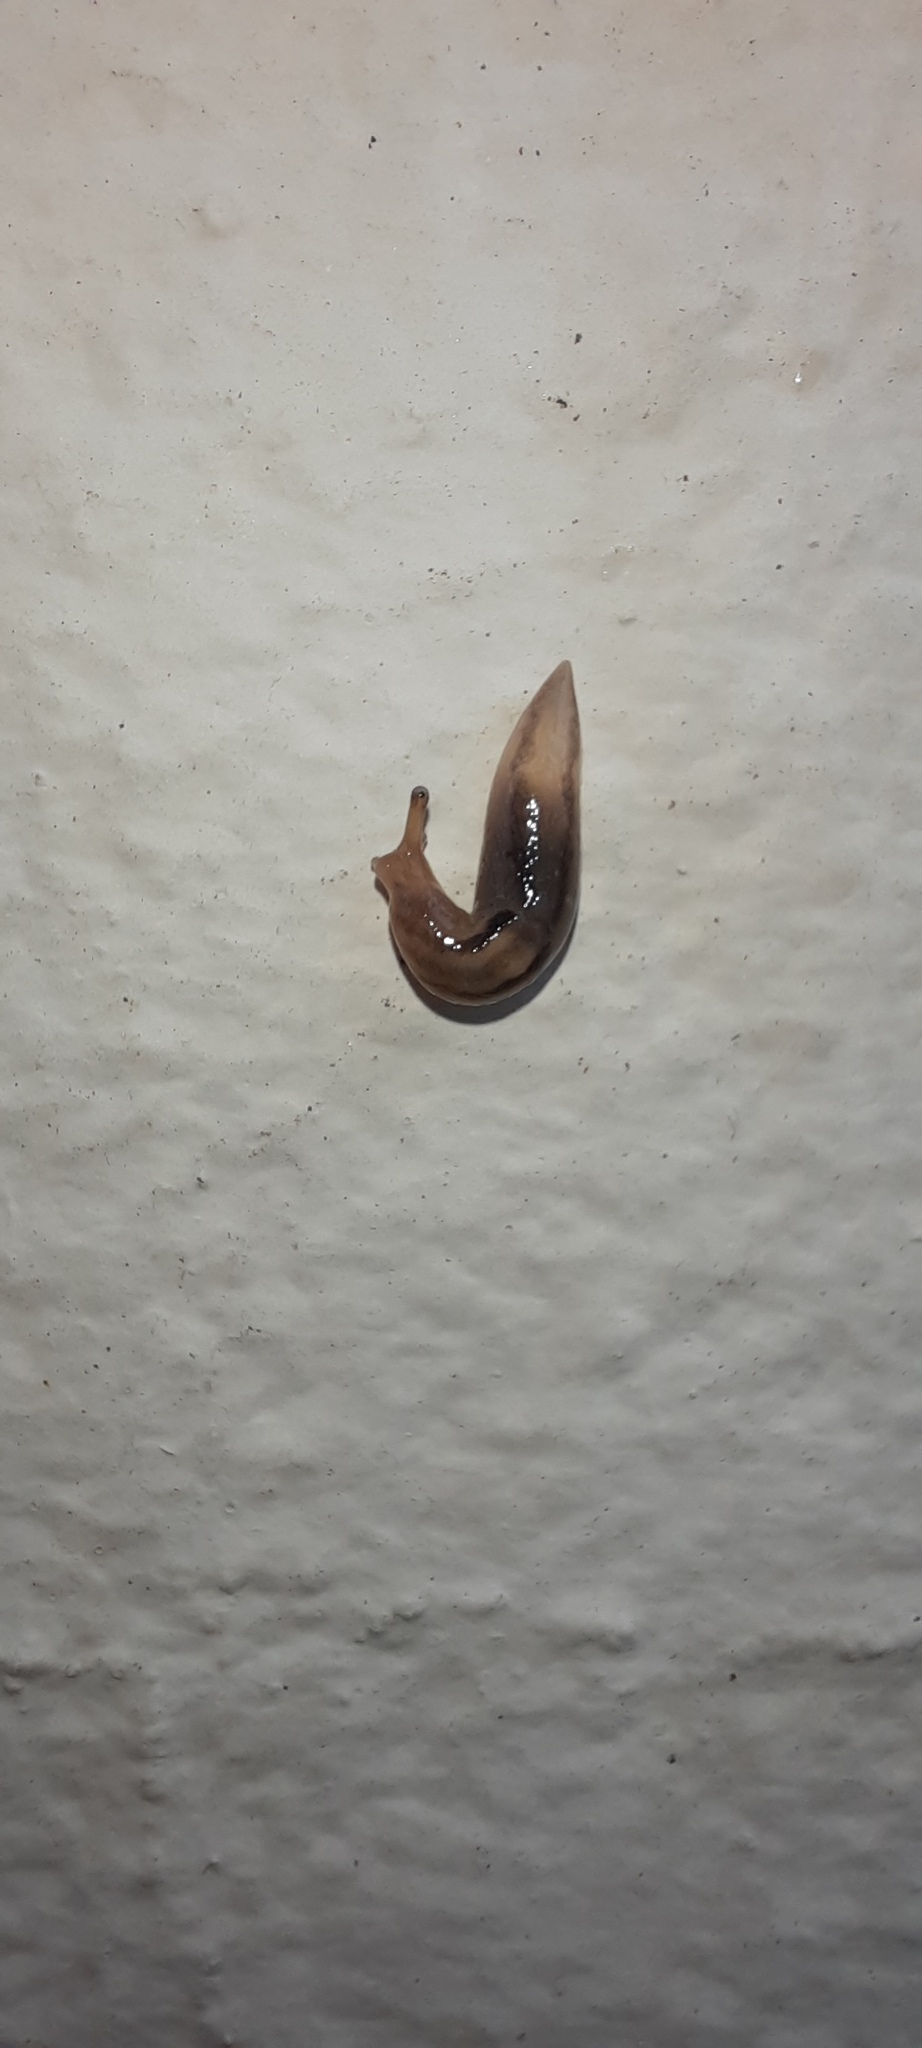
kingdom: Animalia
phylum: Mollusca
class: Gastropoda
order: Stylommatophora
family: Limacidae
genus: Ambigolimax
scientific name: Ambigolimax
